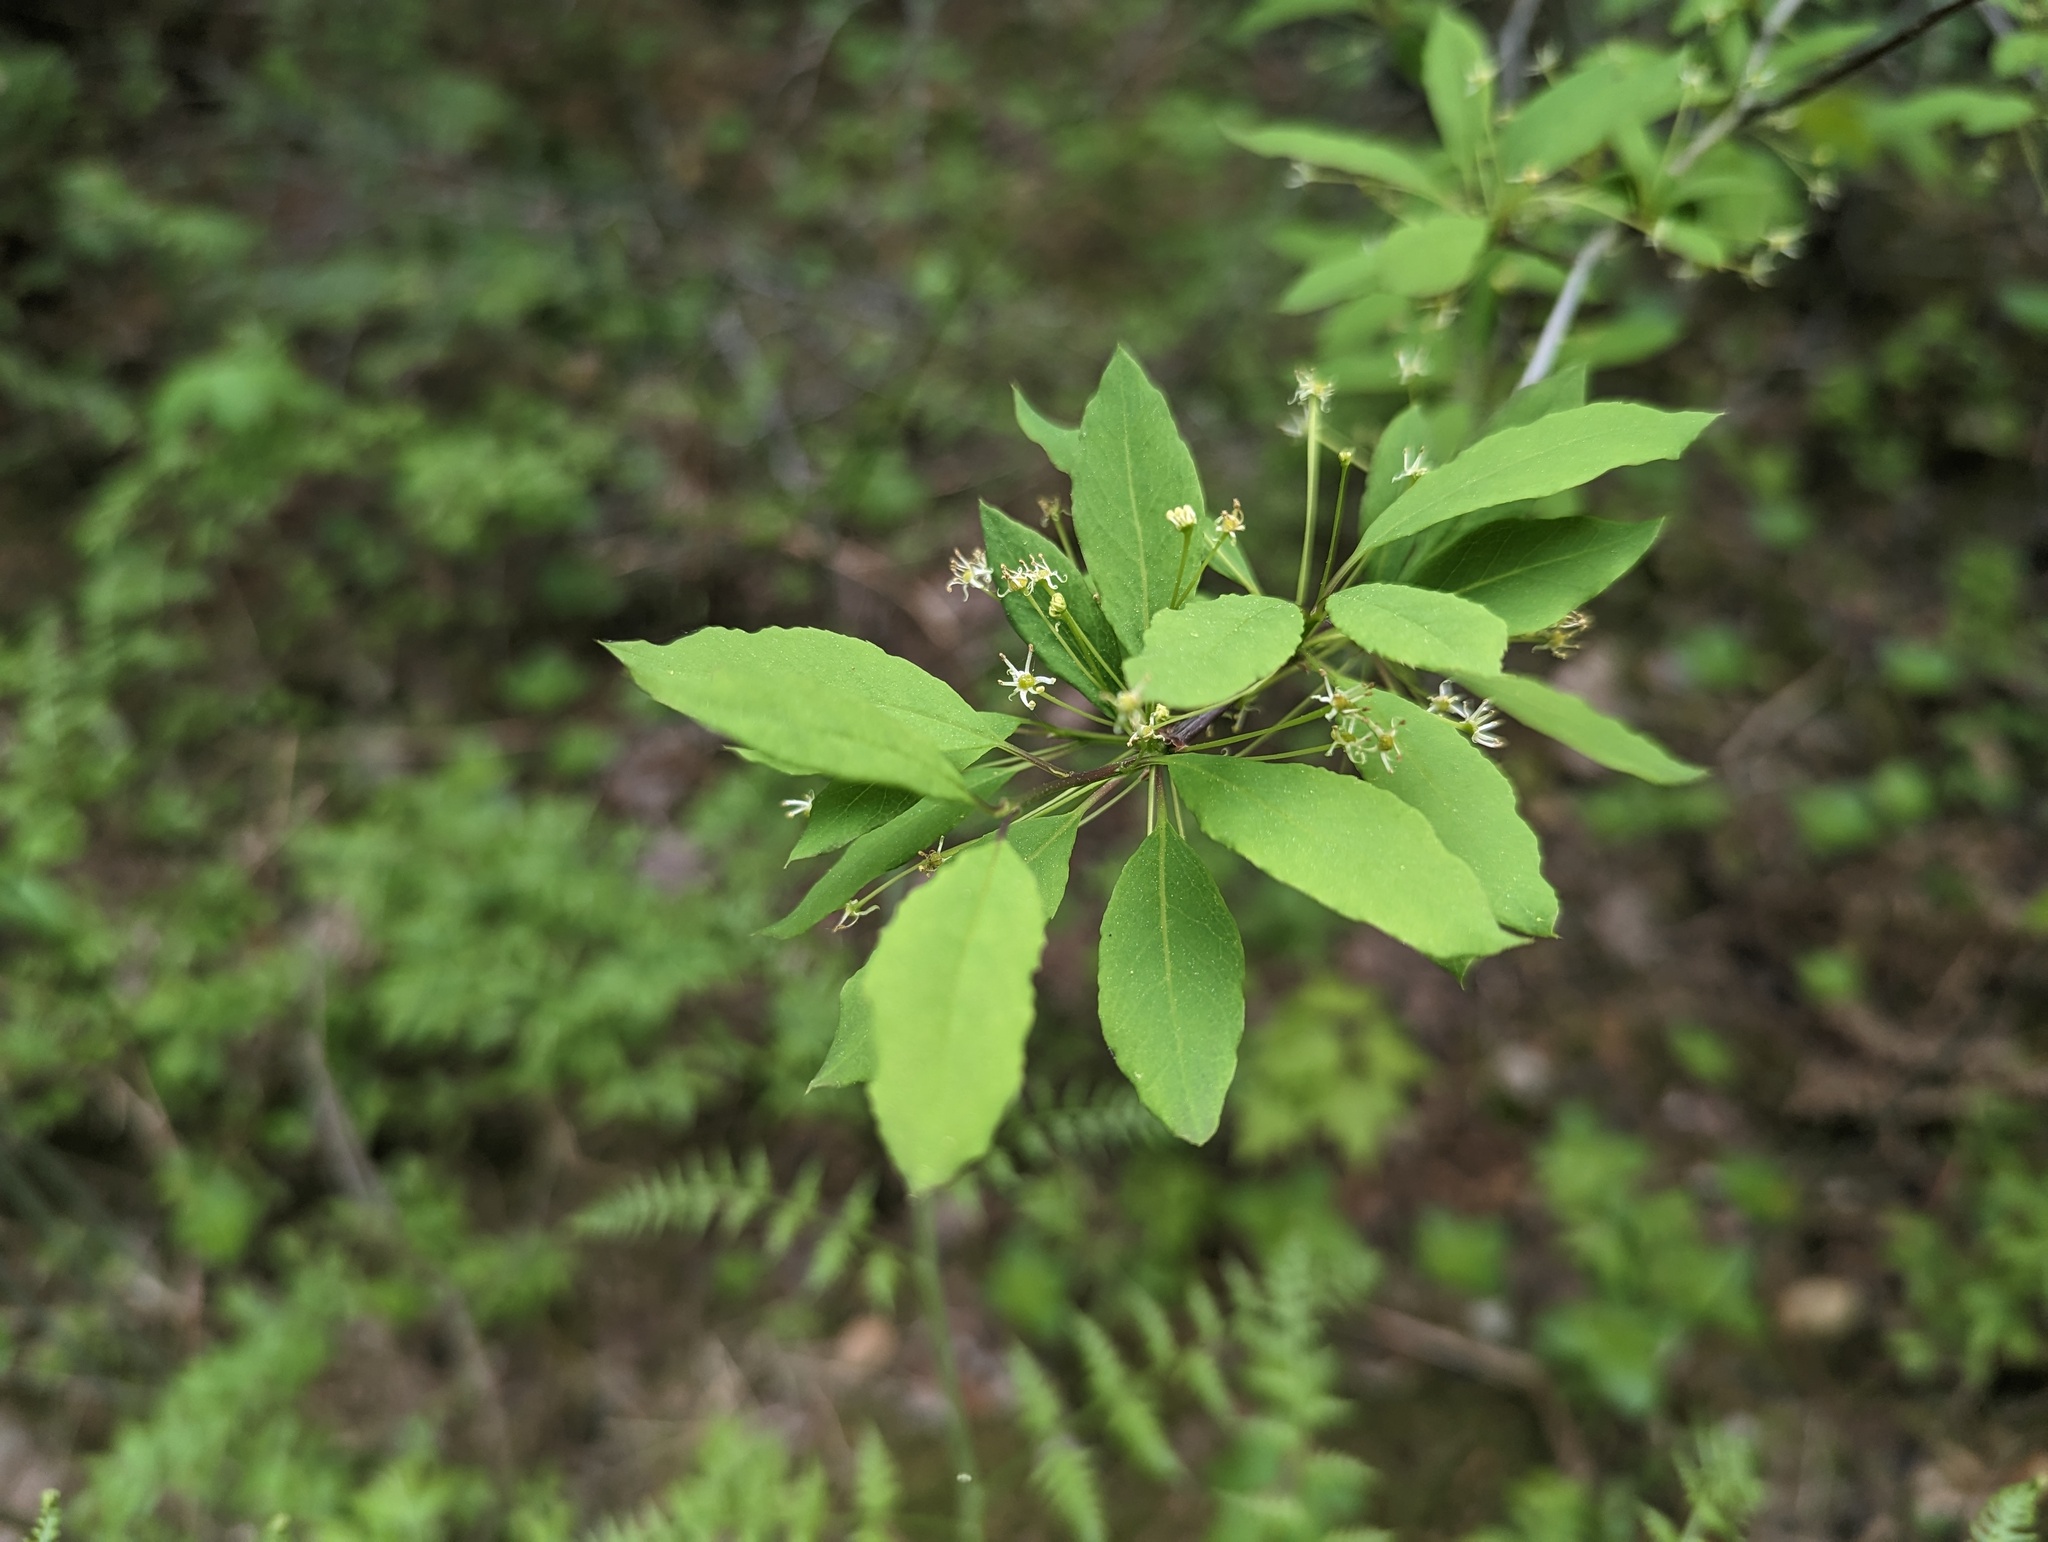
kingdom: Plantae
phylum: Tracheophyta
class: Magnoliopsida
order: Aquifoliales
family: Aquifoliaceae
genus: Ilex
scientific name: Ilex mucronata
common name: Catberry
